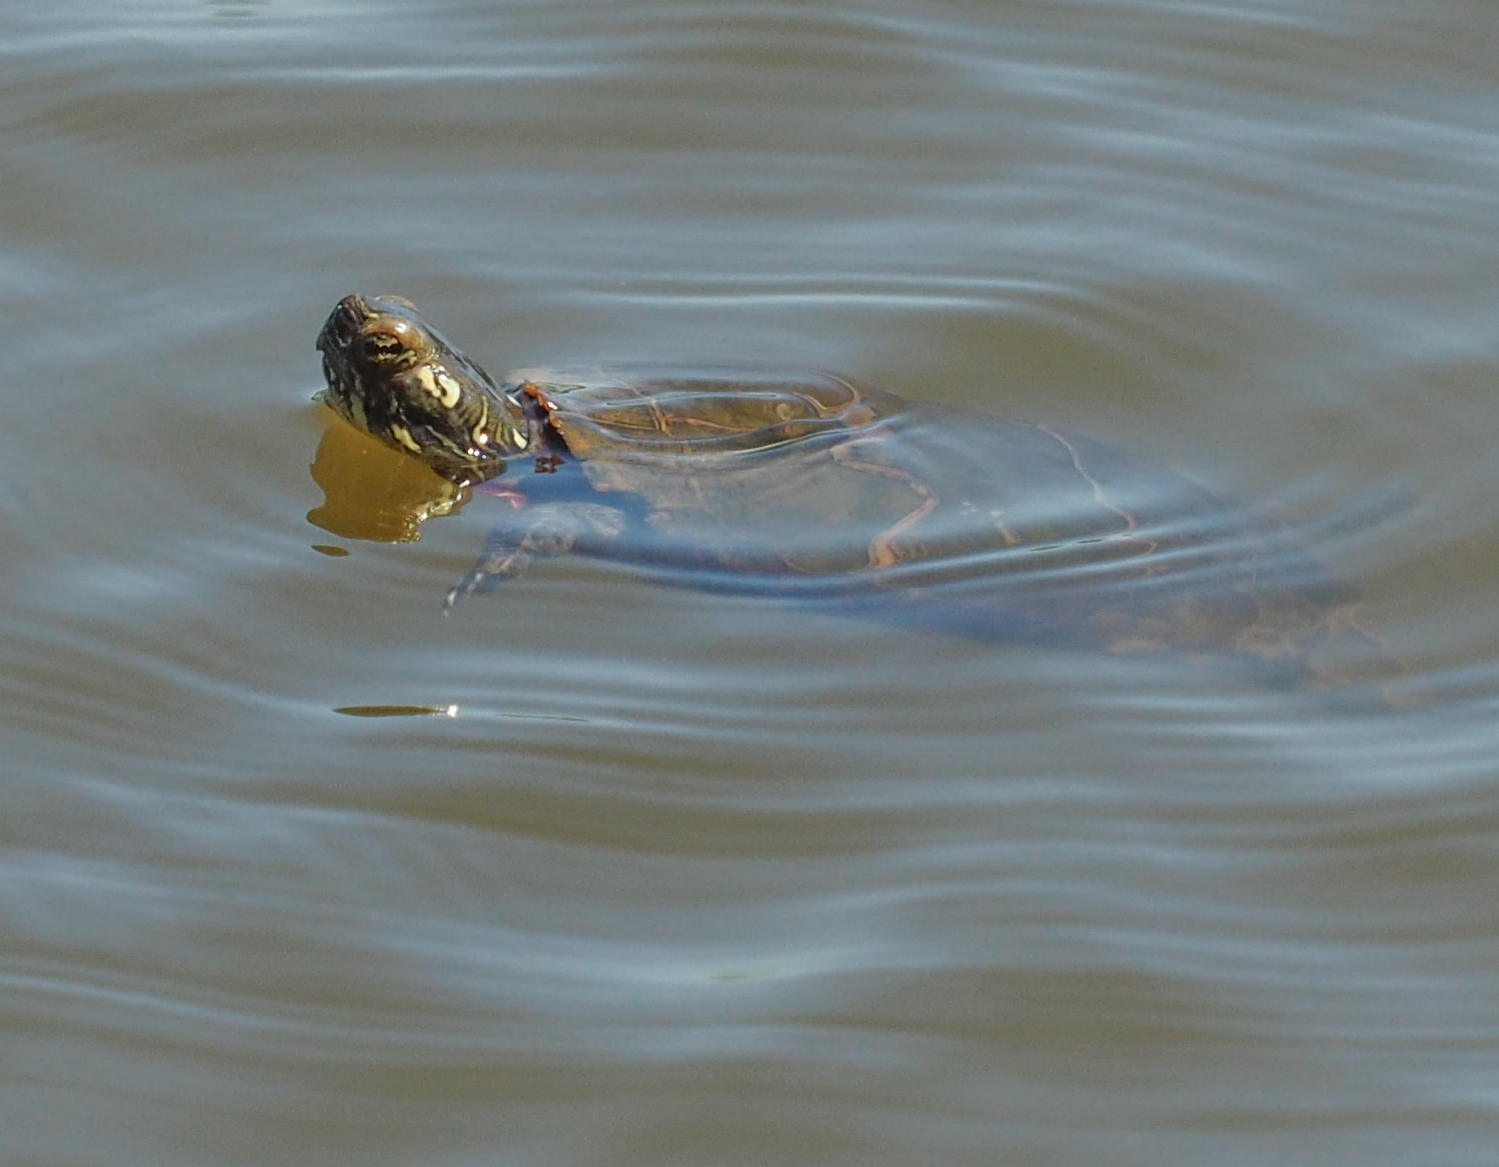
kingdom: Animalia
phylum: Chordata
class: Testudines
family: Emydidae
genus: Chrysemys
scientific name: Chrysemys picta
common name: Painted turtle
